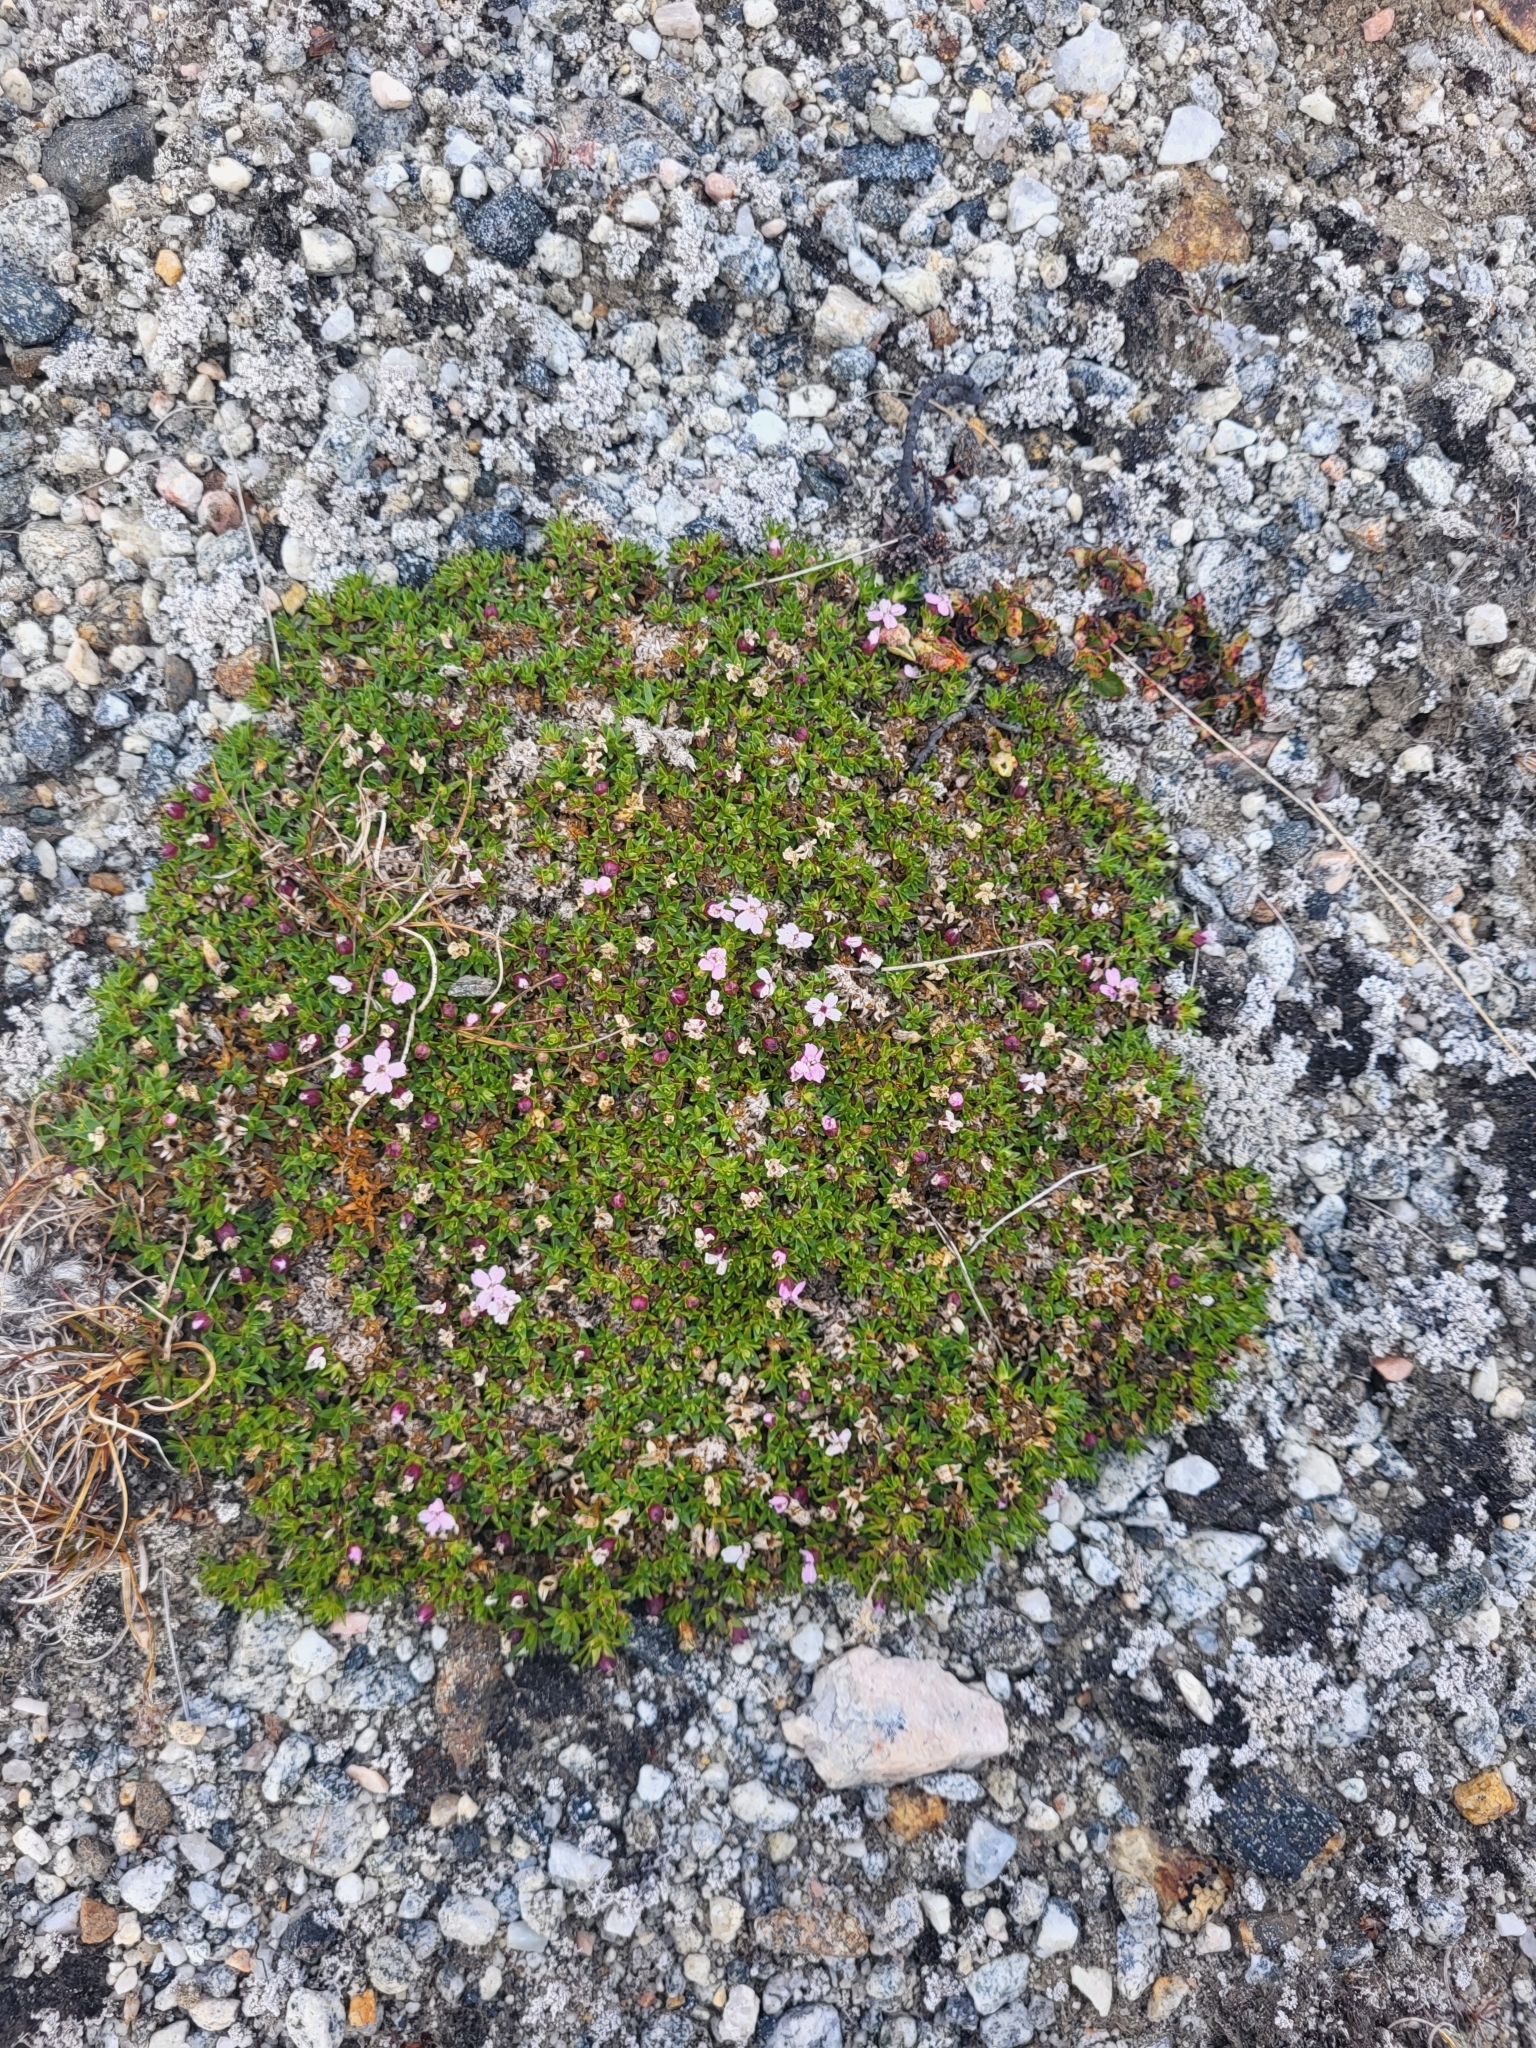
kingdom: Plantae
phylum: Tracheophyta
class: Magnoliopsida
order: Caryophyllales
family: Caryophyllaceae
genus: Silene
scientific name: Silene acaulis
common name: Moss campion
